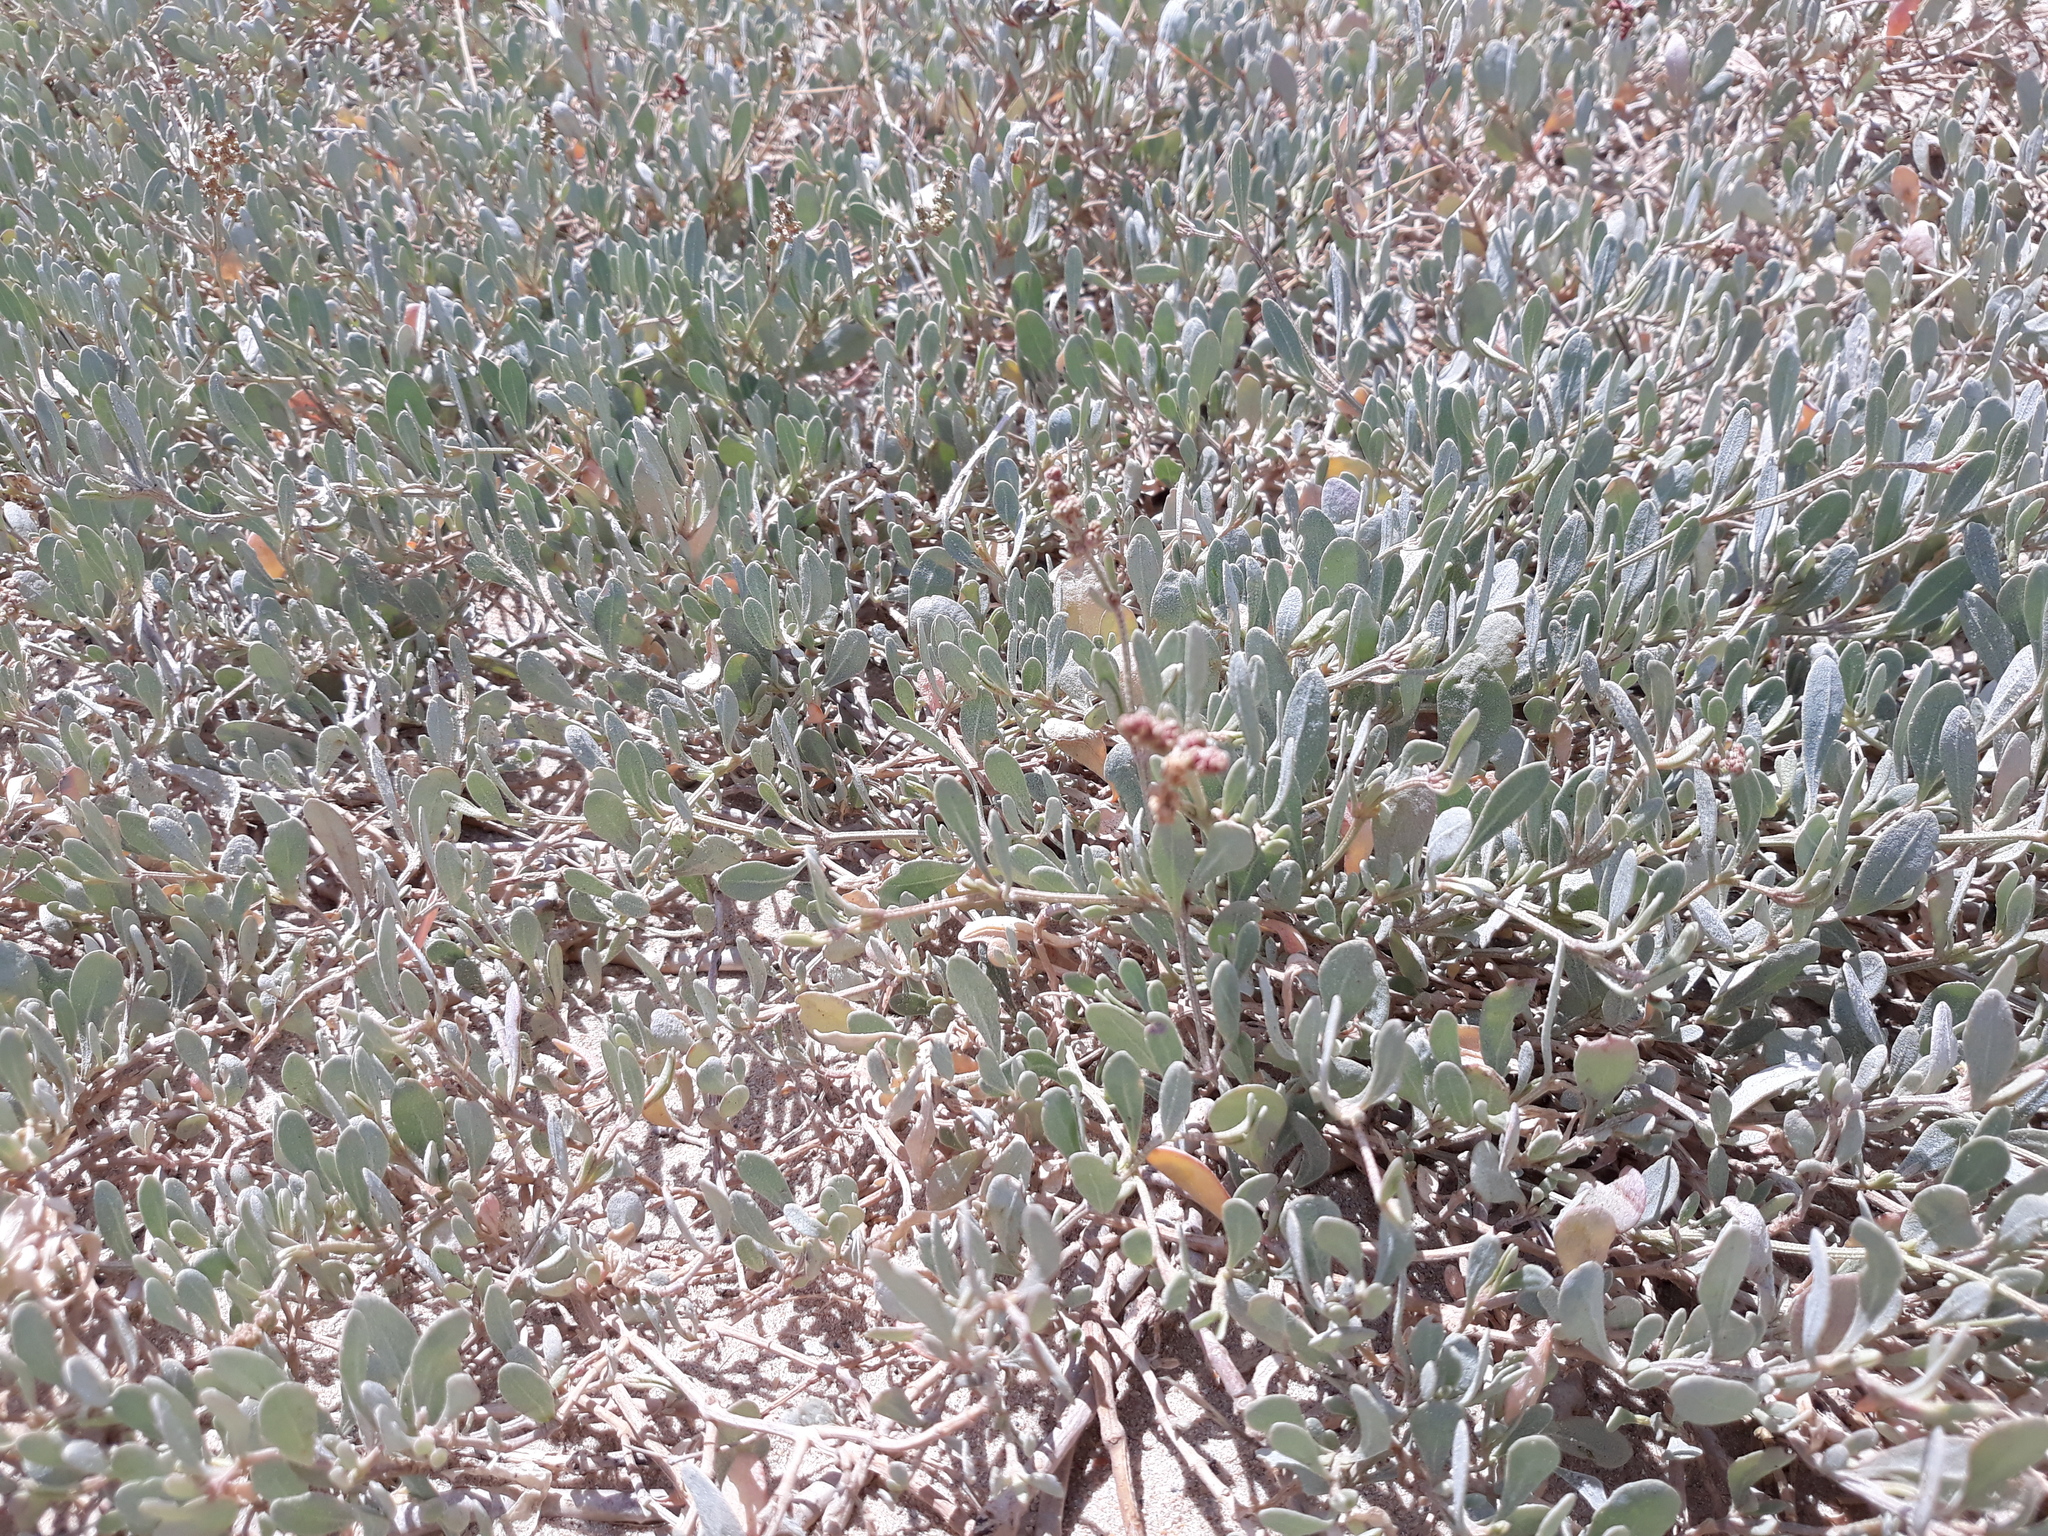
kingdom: Plantae
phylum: Tracheophyta
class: Magnoliopsida
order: Caryophyllales
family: Amaranthaceae
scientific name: Amaranthaceae
